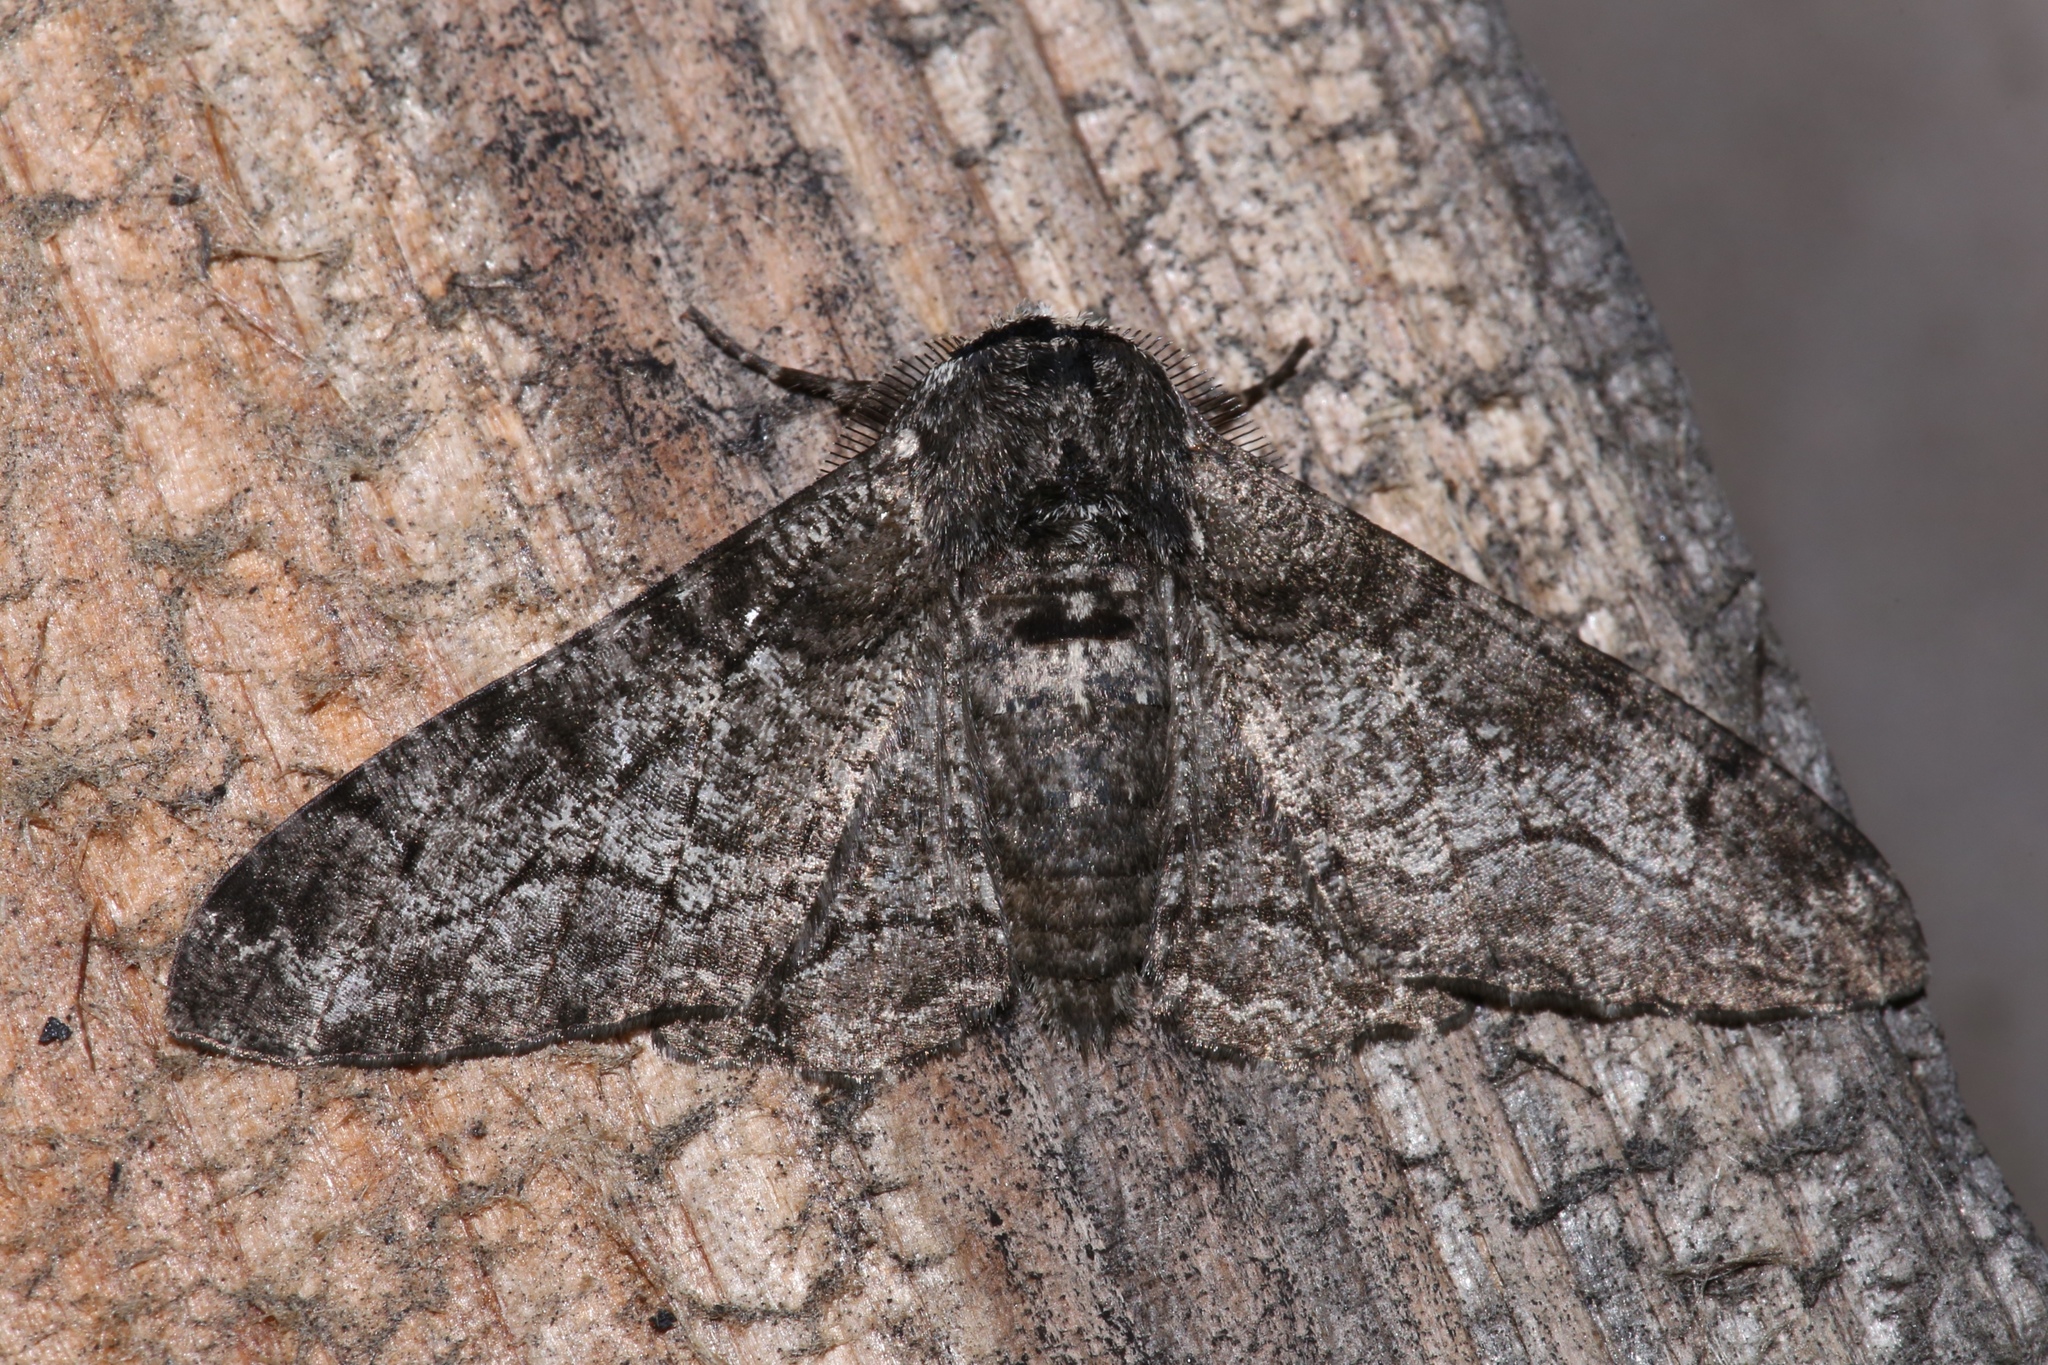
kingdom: Animalia
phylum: Arthropoda
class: Insecta
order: Lepidoptera
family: Geometridae
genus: Biston
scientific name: Biston betularia
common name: Peppered moth
